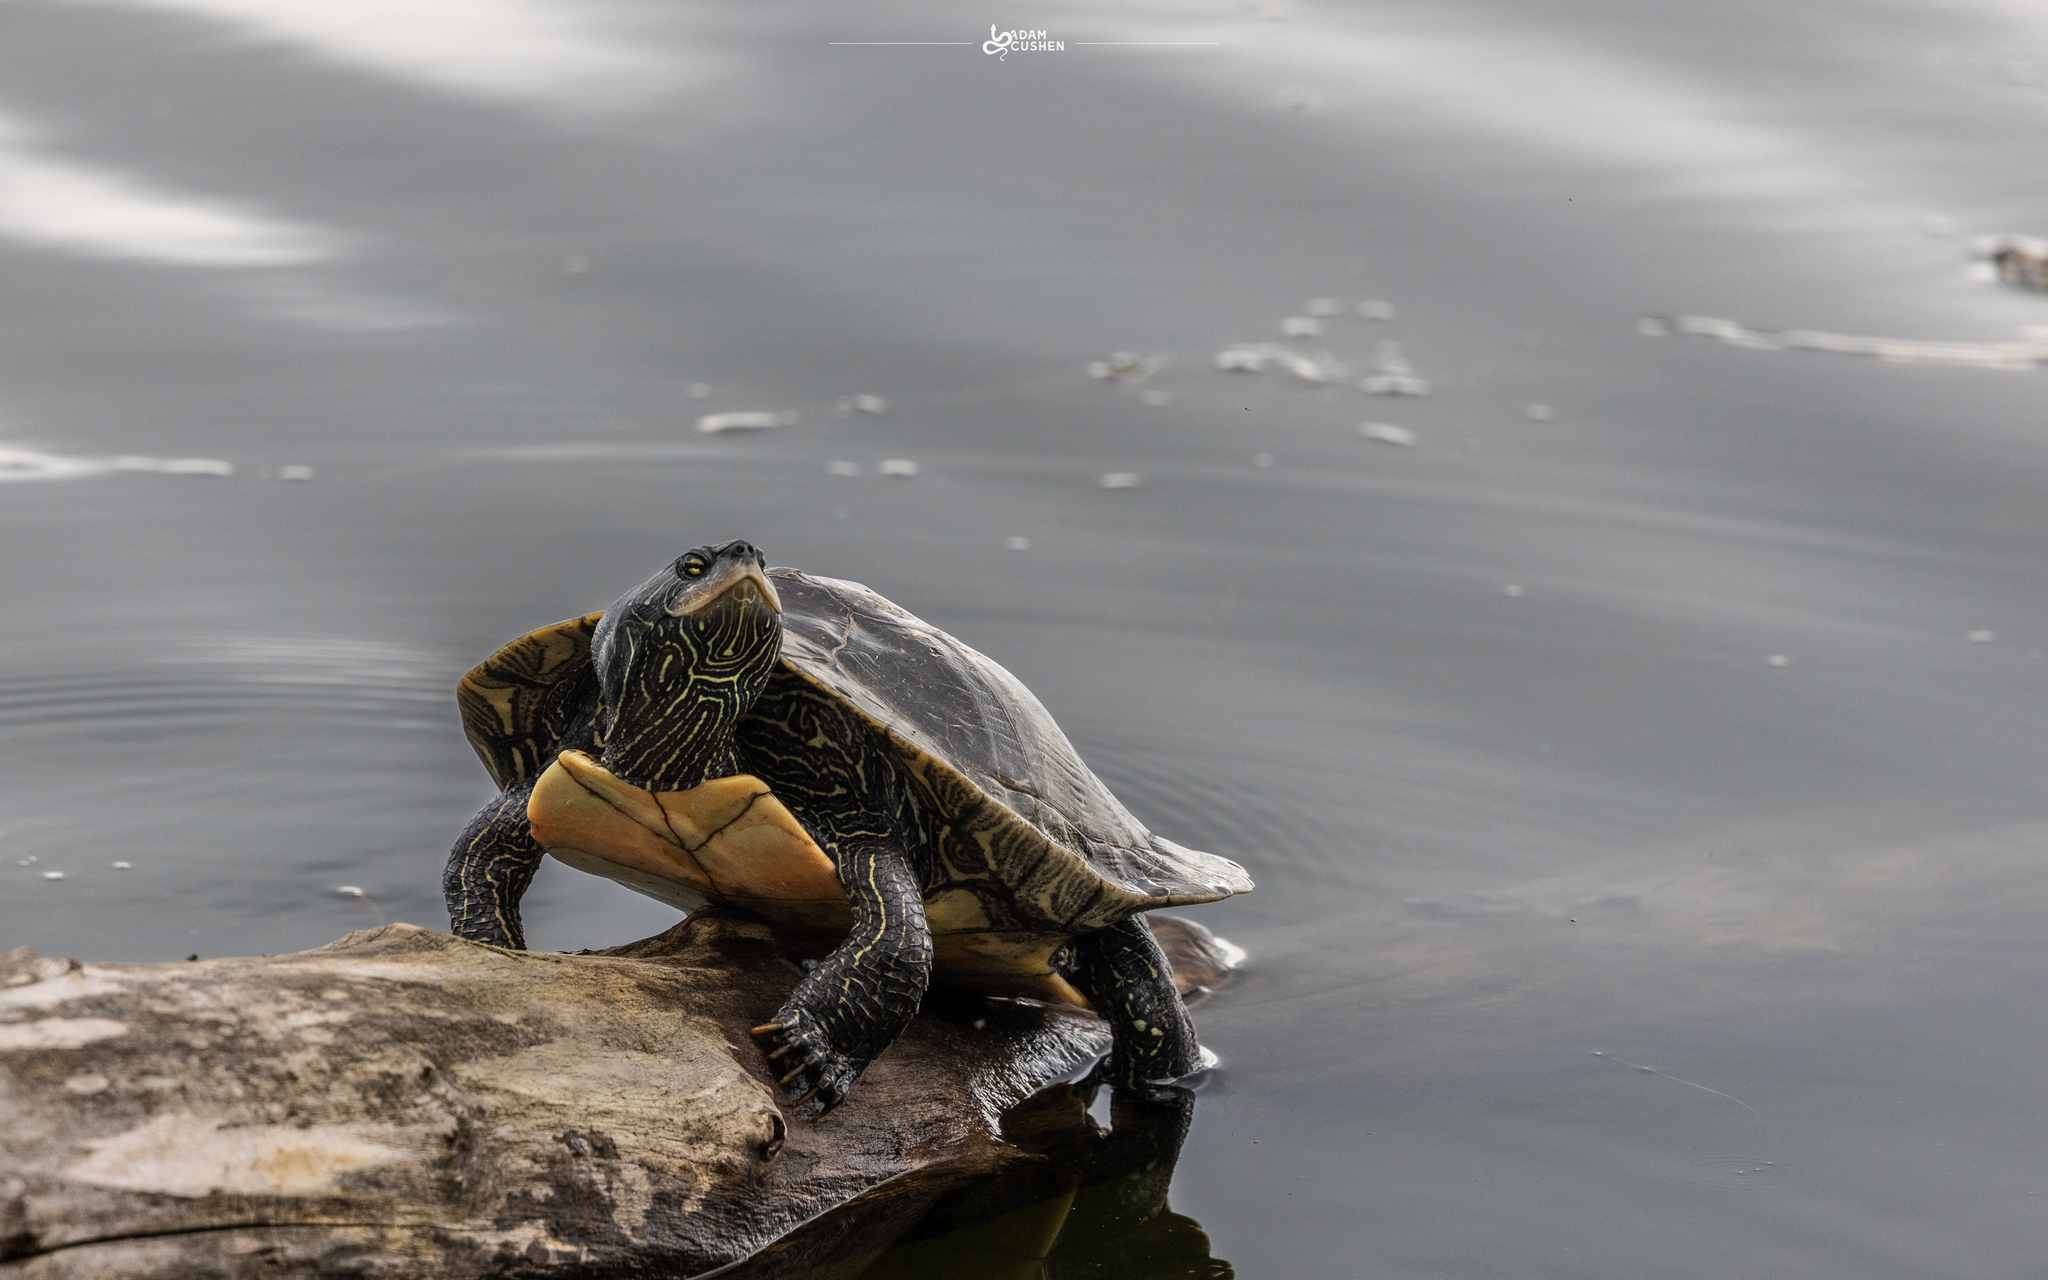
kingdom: Animalia
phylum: Chordata
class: Testudines
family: Emydidae
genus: Graptemys
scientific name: Graptemys geographica
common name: Common map turtle
